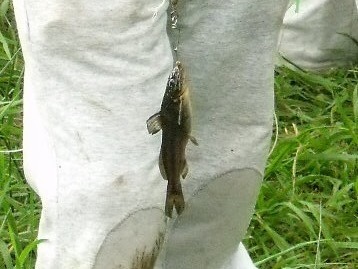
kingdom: Animalia
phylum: Chordata
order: Siluriformes
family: Heptapteridae
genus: Rhamdia
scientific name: Rhamdia quelen
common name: Catfish
